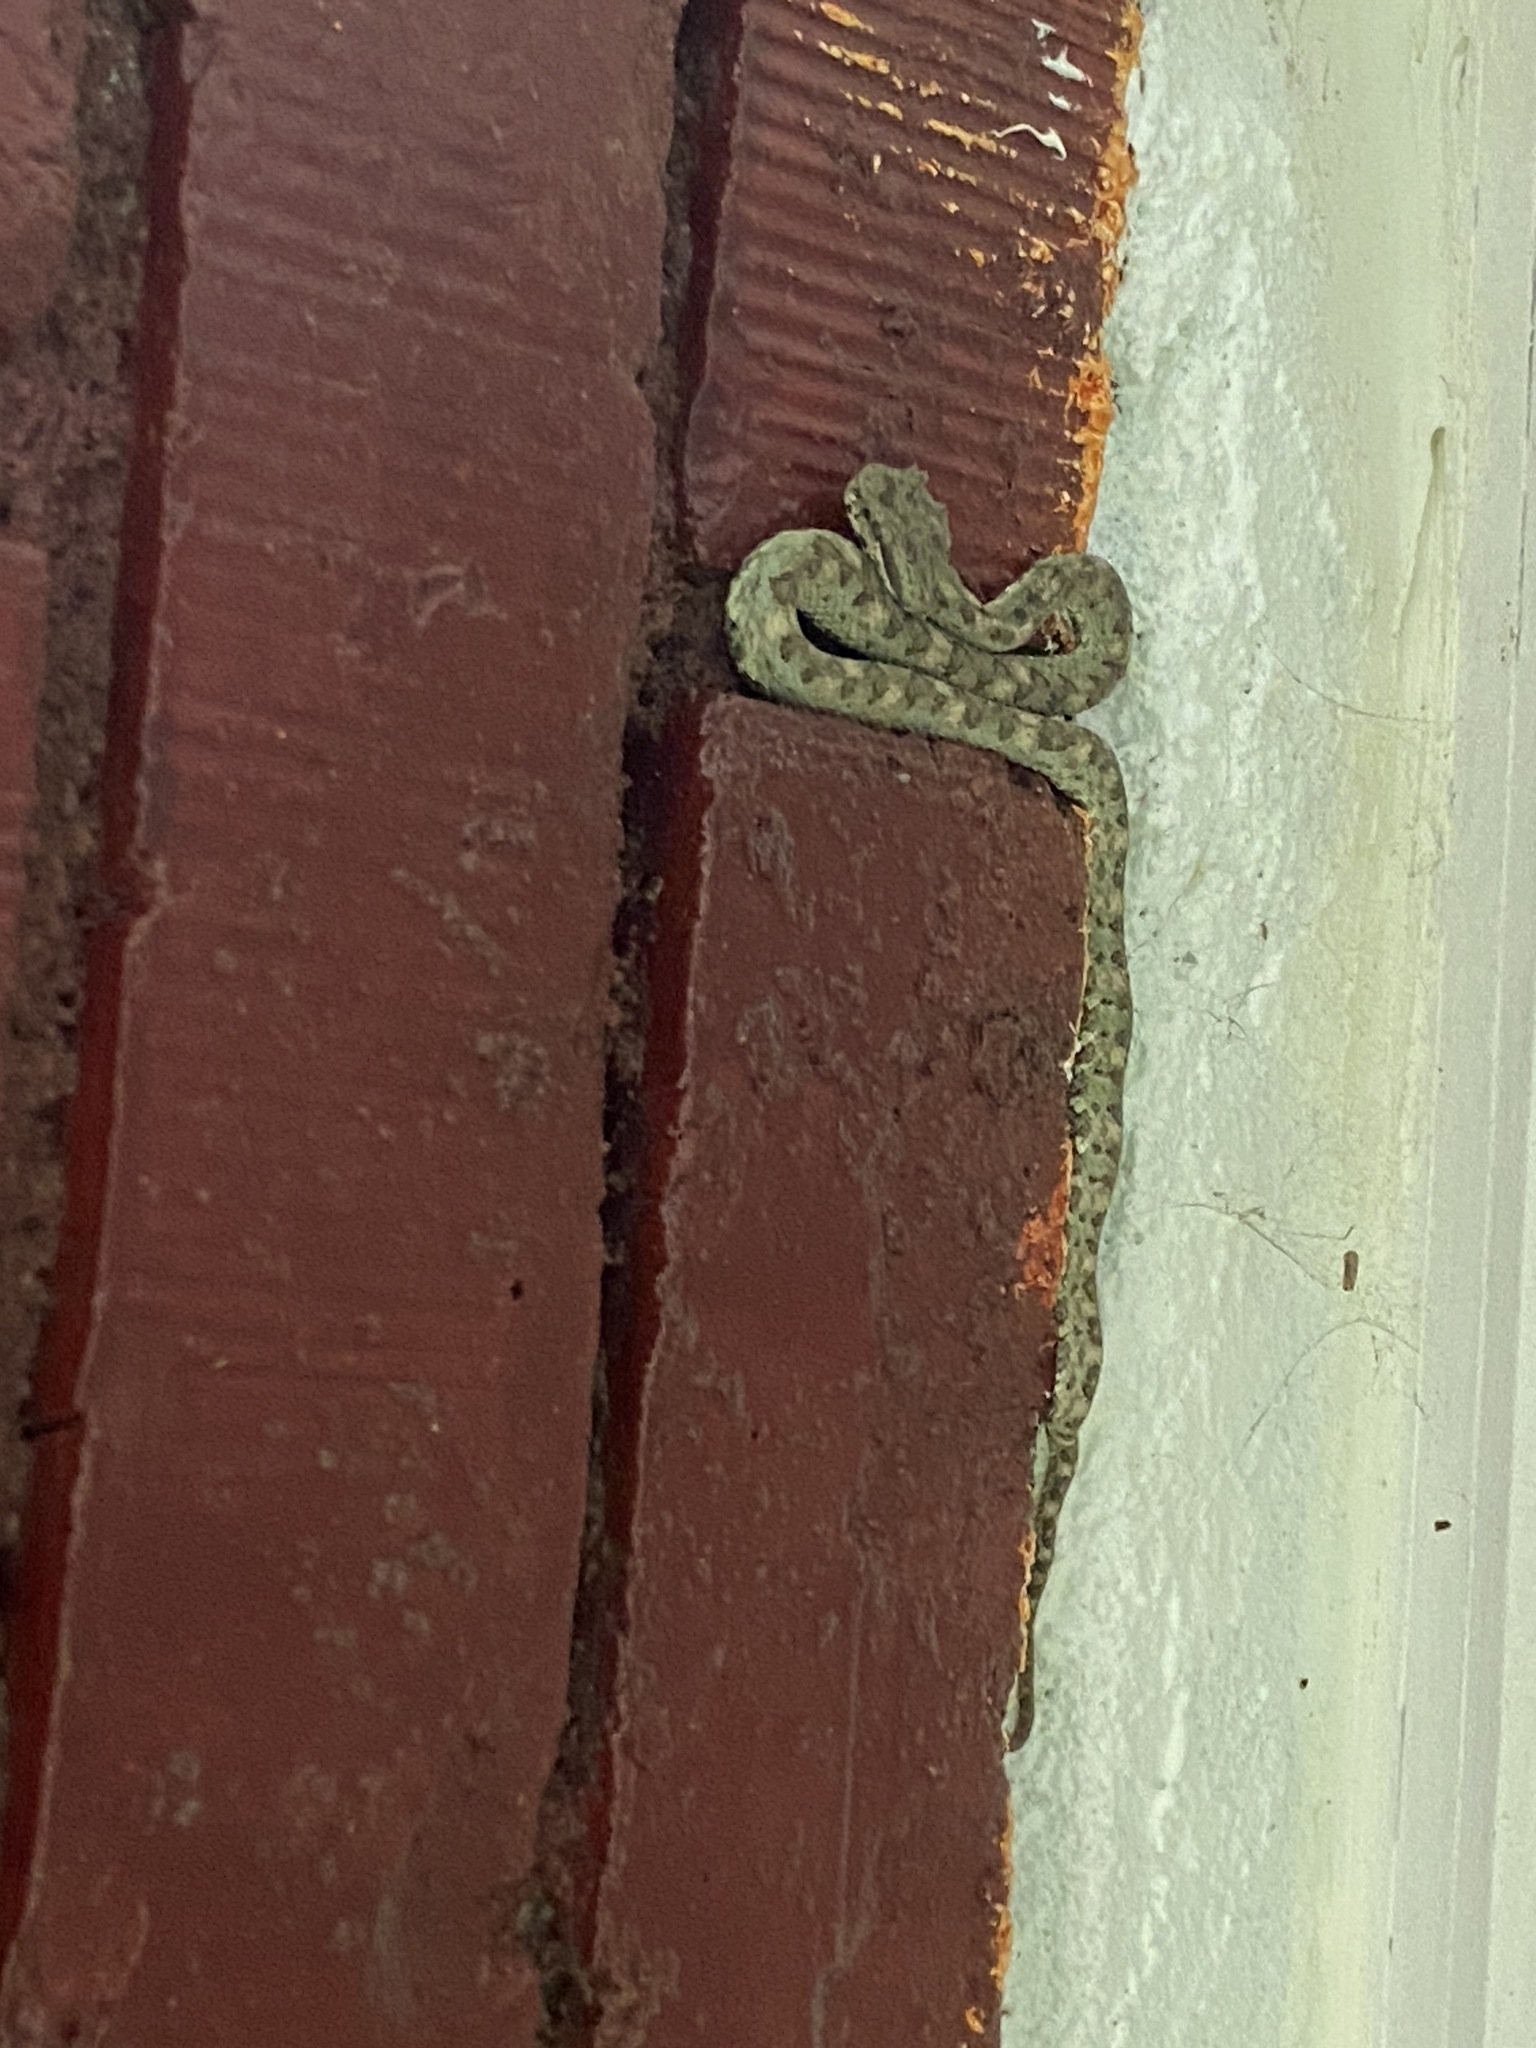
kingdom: Animalia
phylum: Chordata
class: Squamata
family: Viperidae
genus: Bothriechis
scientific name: Bothriechis schlegelii
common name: Eyelash viper
